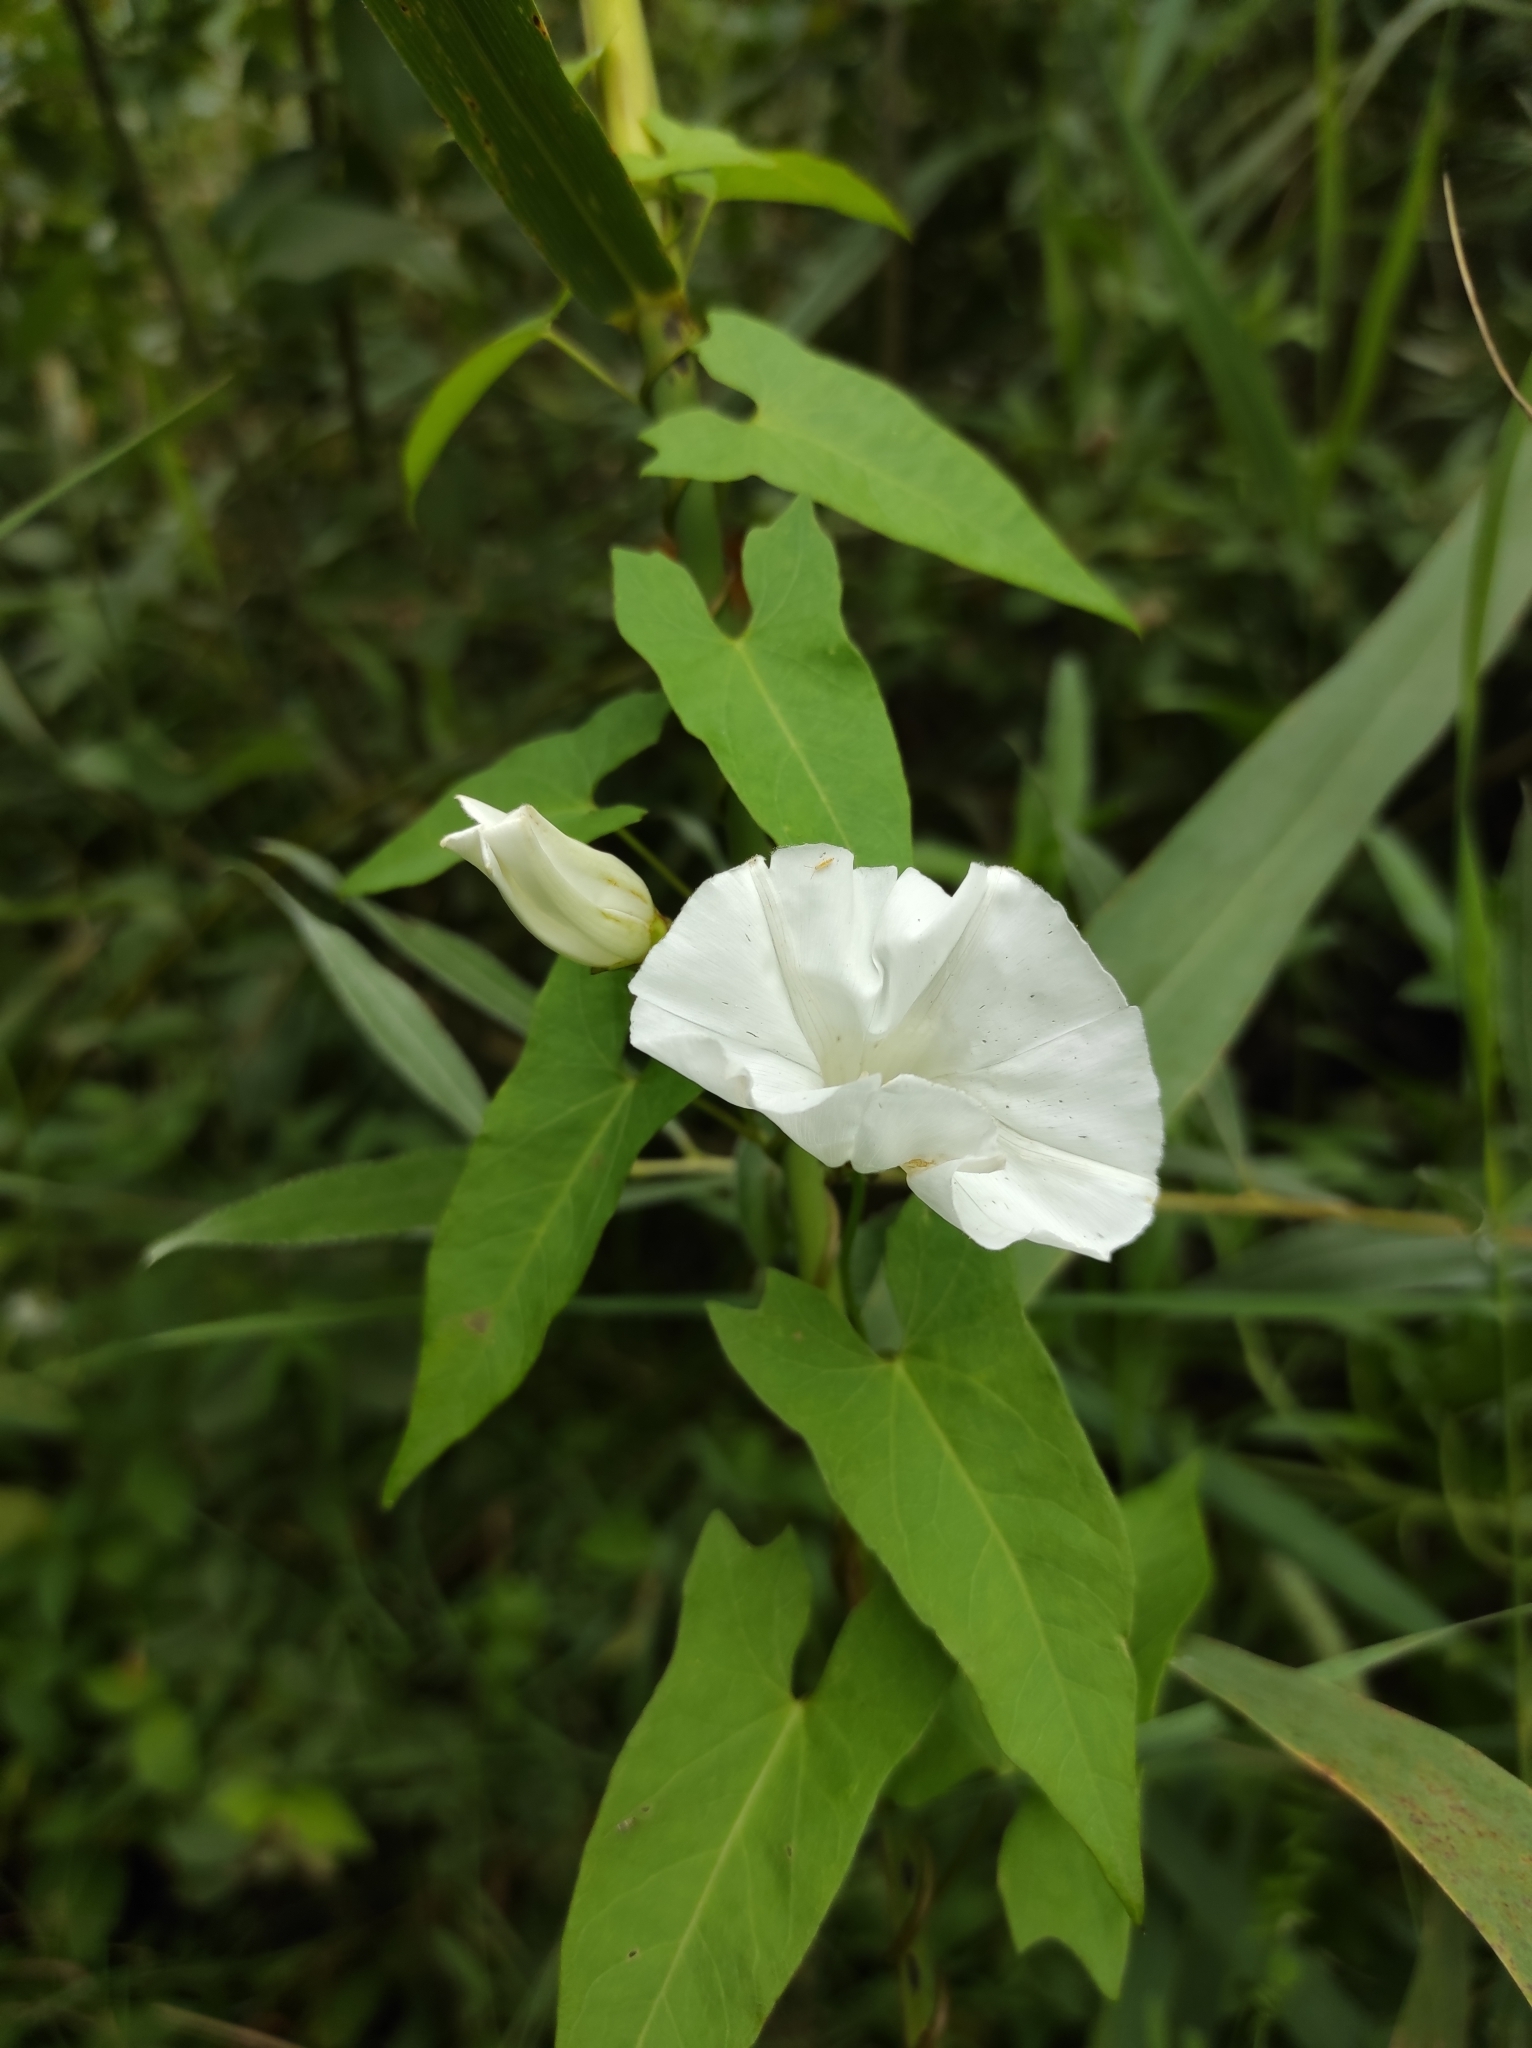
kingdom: Plantae
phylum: Tracheophyta
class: Magnoliopsida
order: Solanales
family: Convolvulaceae
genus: Calystegia
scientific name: Calystegia sepium
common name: Hedge bindweed
